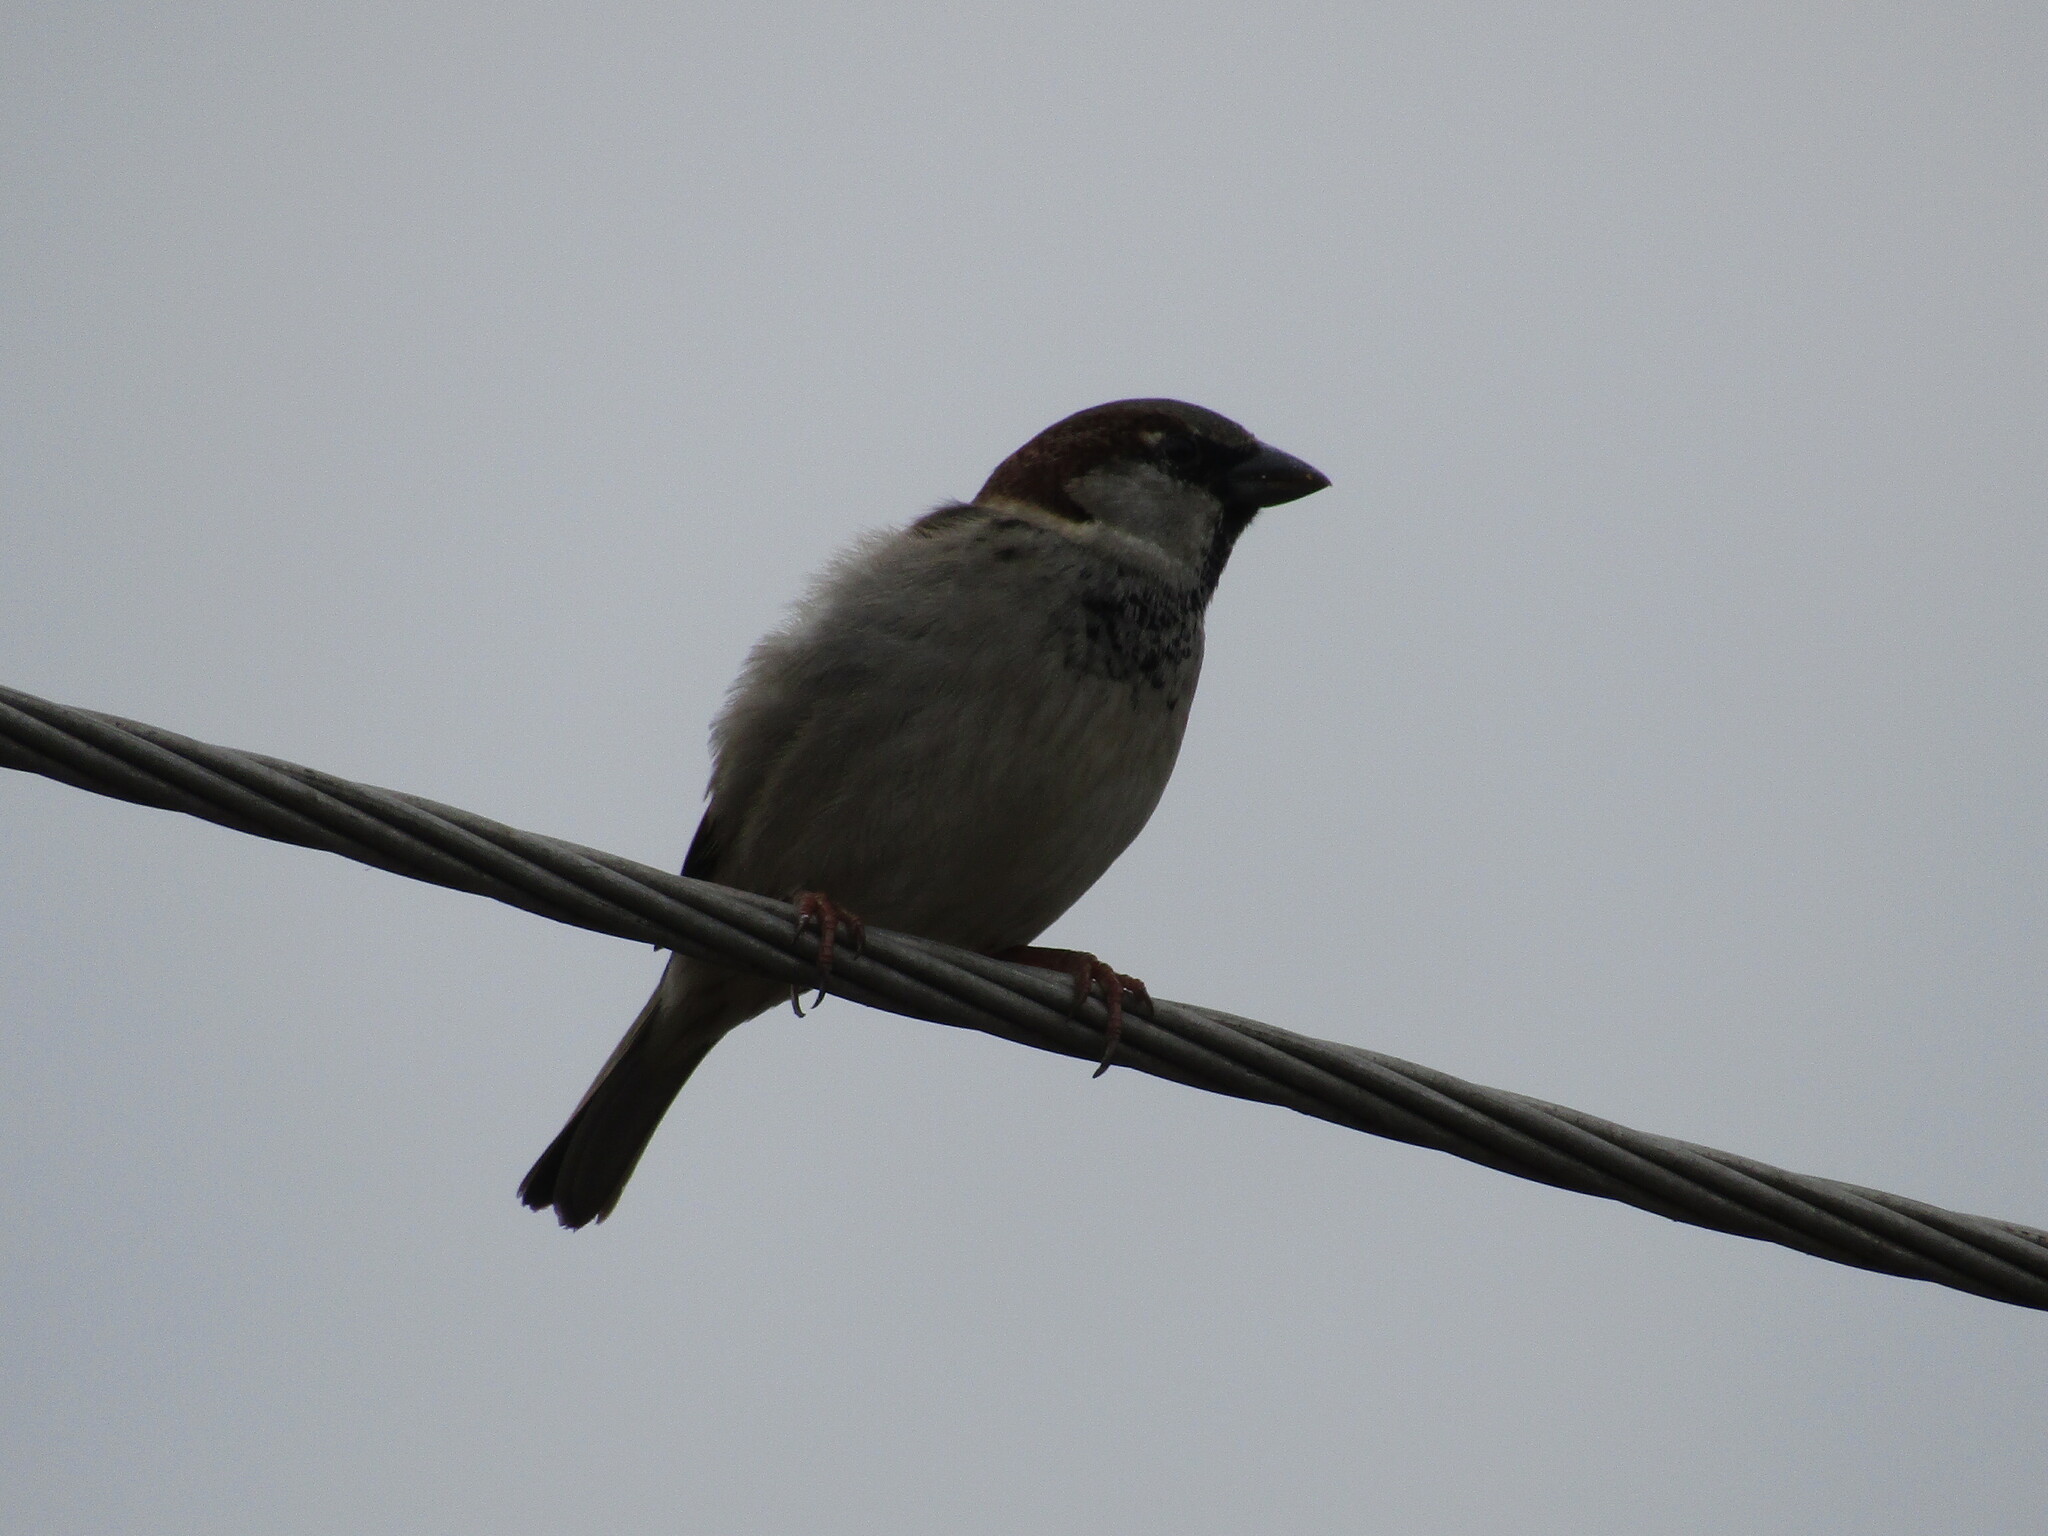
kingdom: Animalia
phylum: Chordata
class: Aves
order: Passeriformes
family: Passeridae
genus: Passer
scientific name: Passer domesticus
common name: House sparrow
